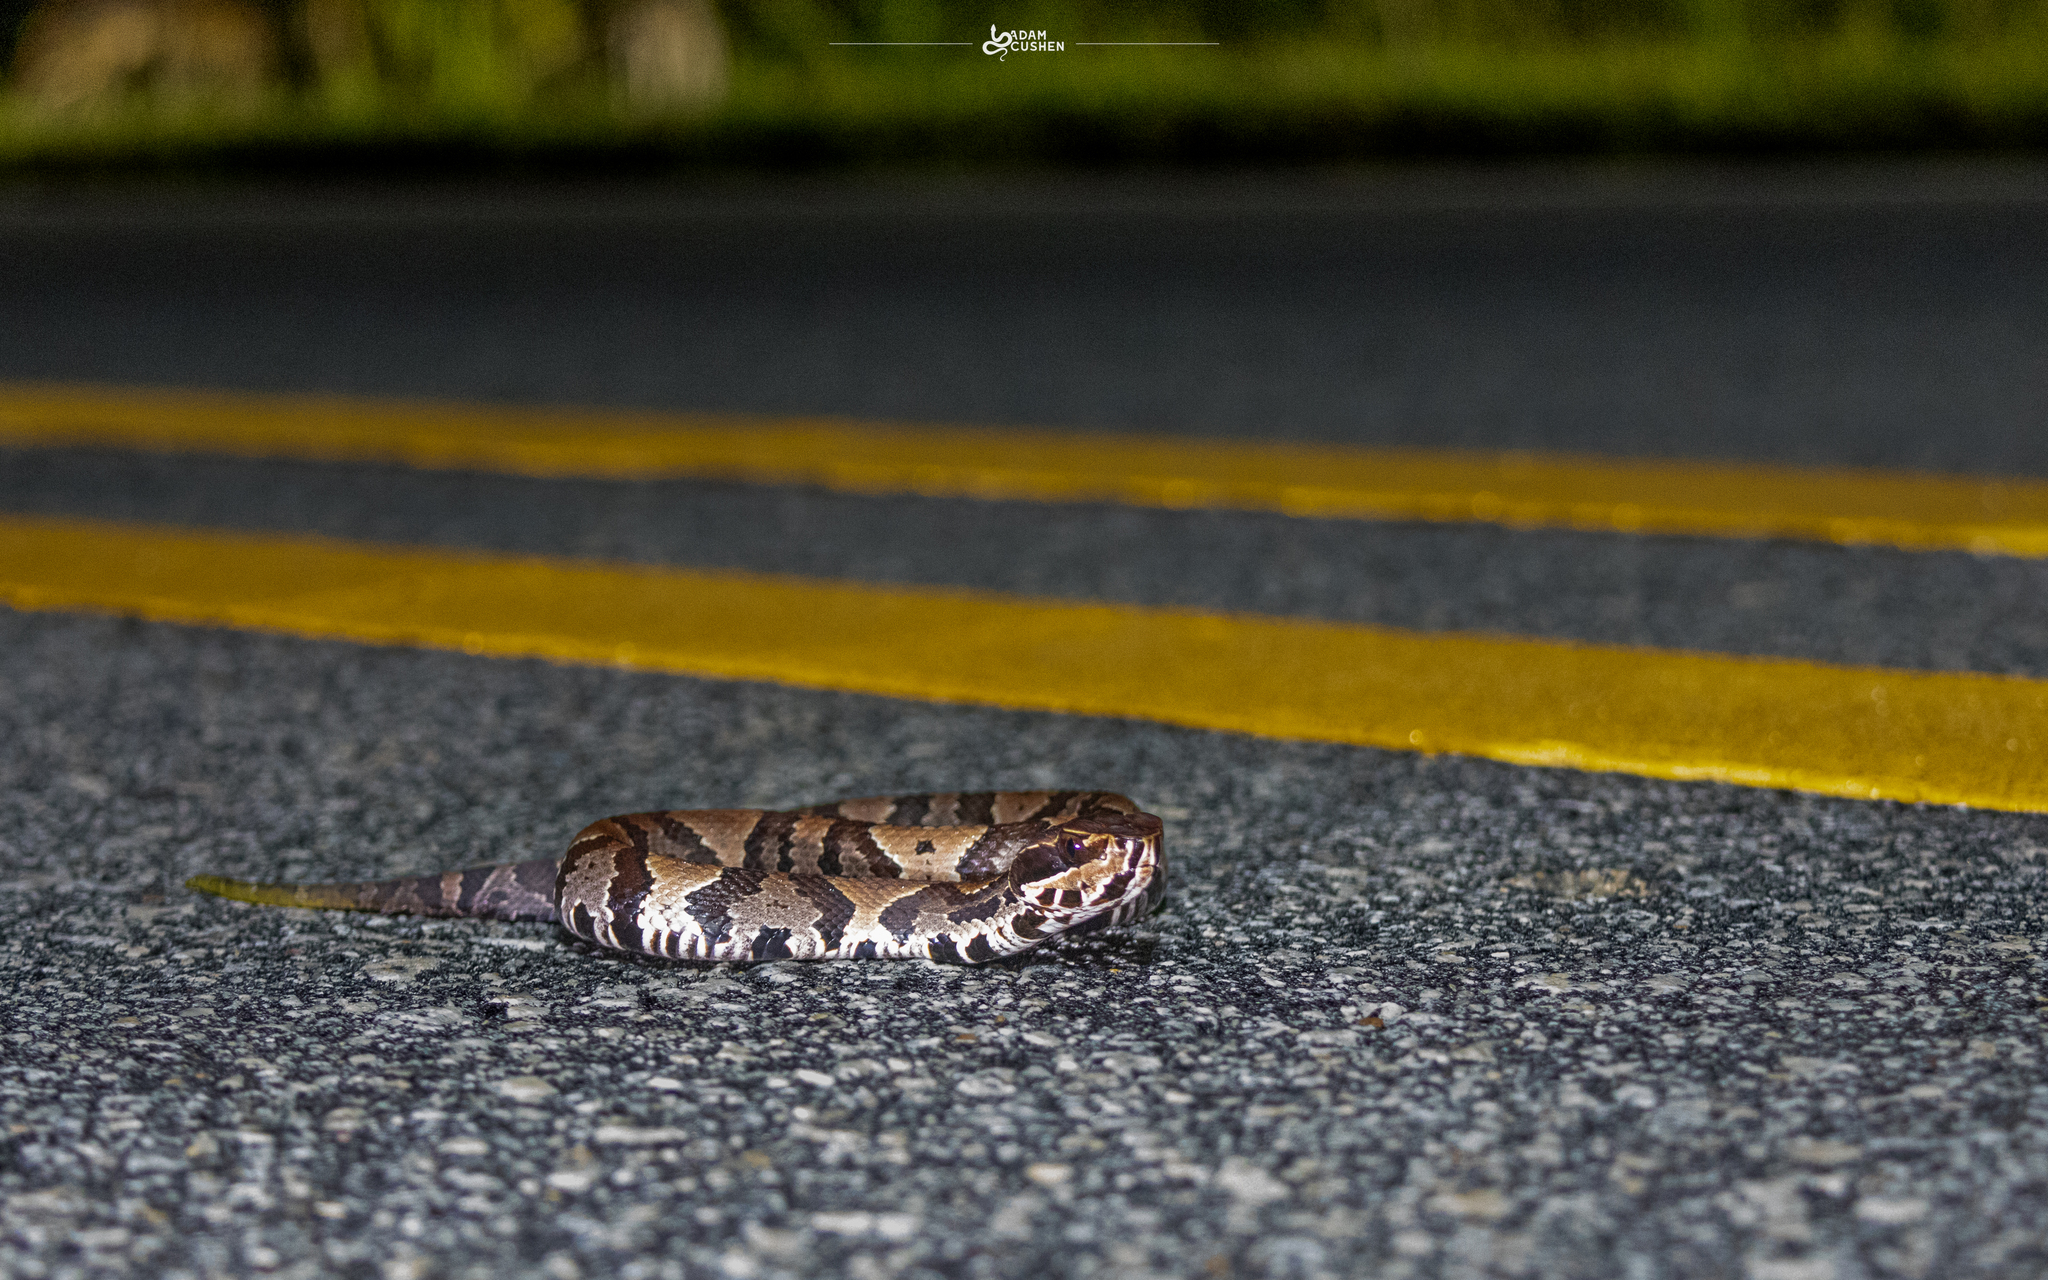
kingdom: Animalia
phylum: Chordata
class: Squamata
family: Viperidae
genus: Agkistrodon
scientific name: Agkistrodon conanti
